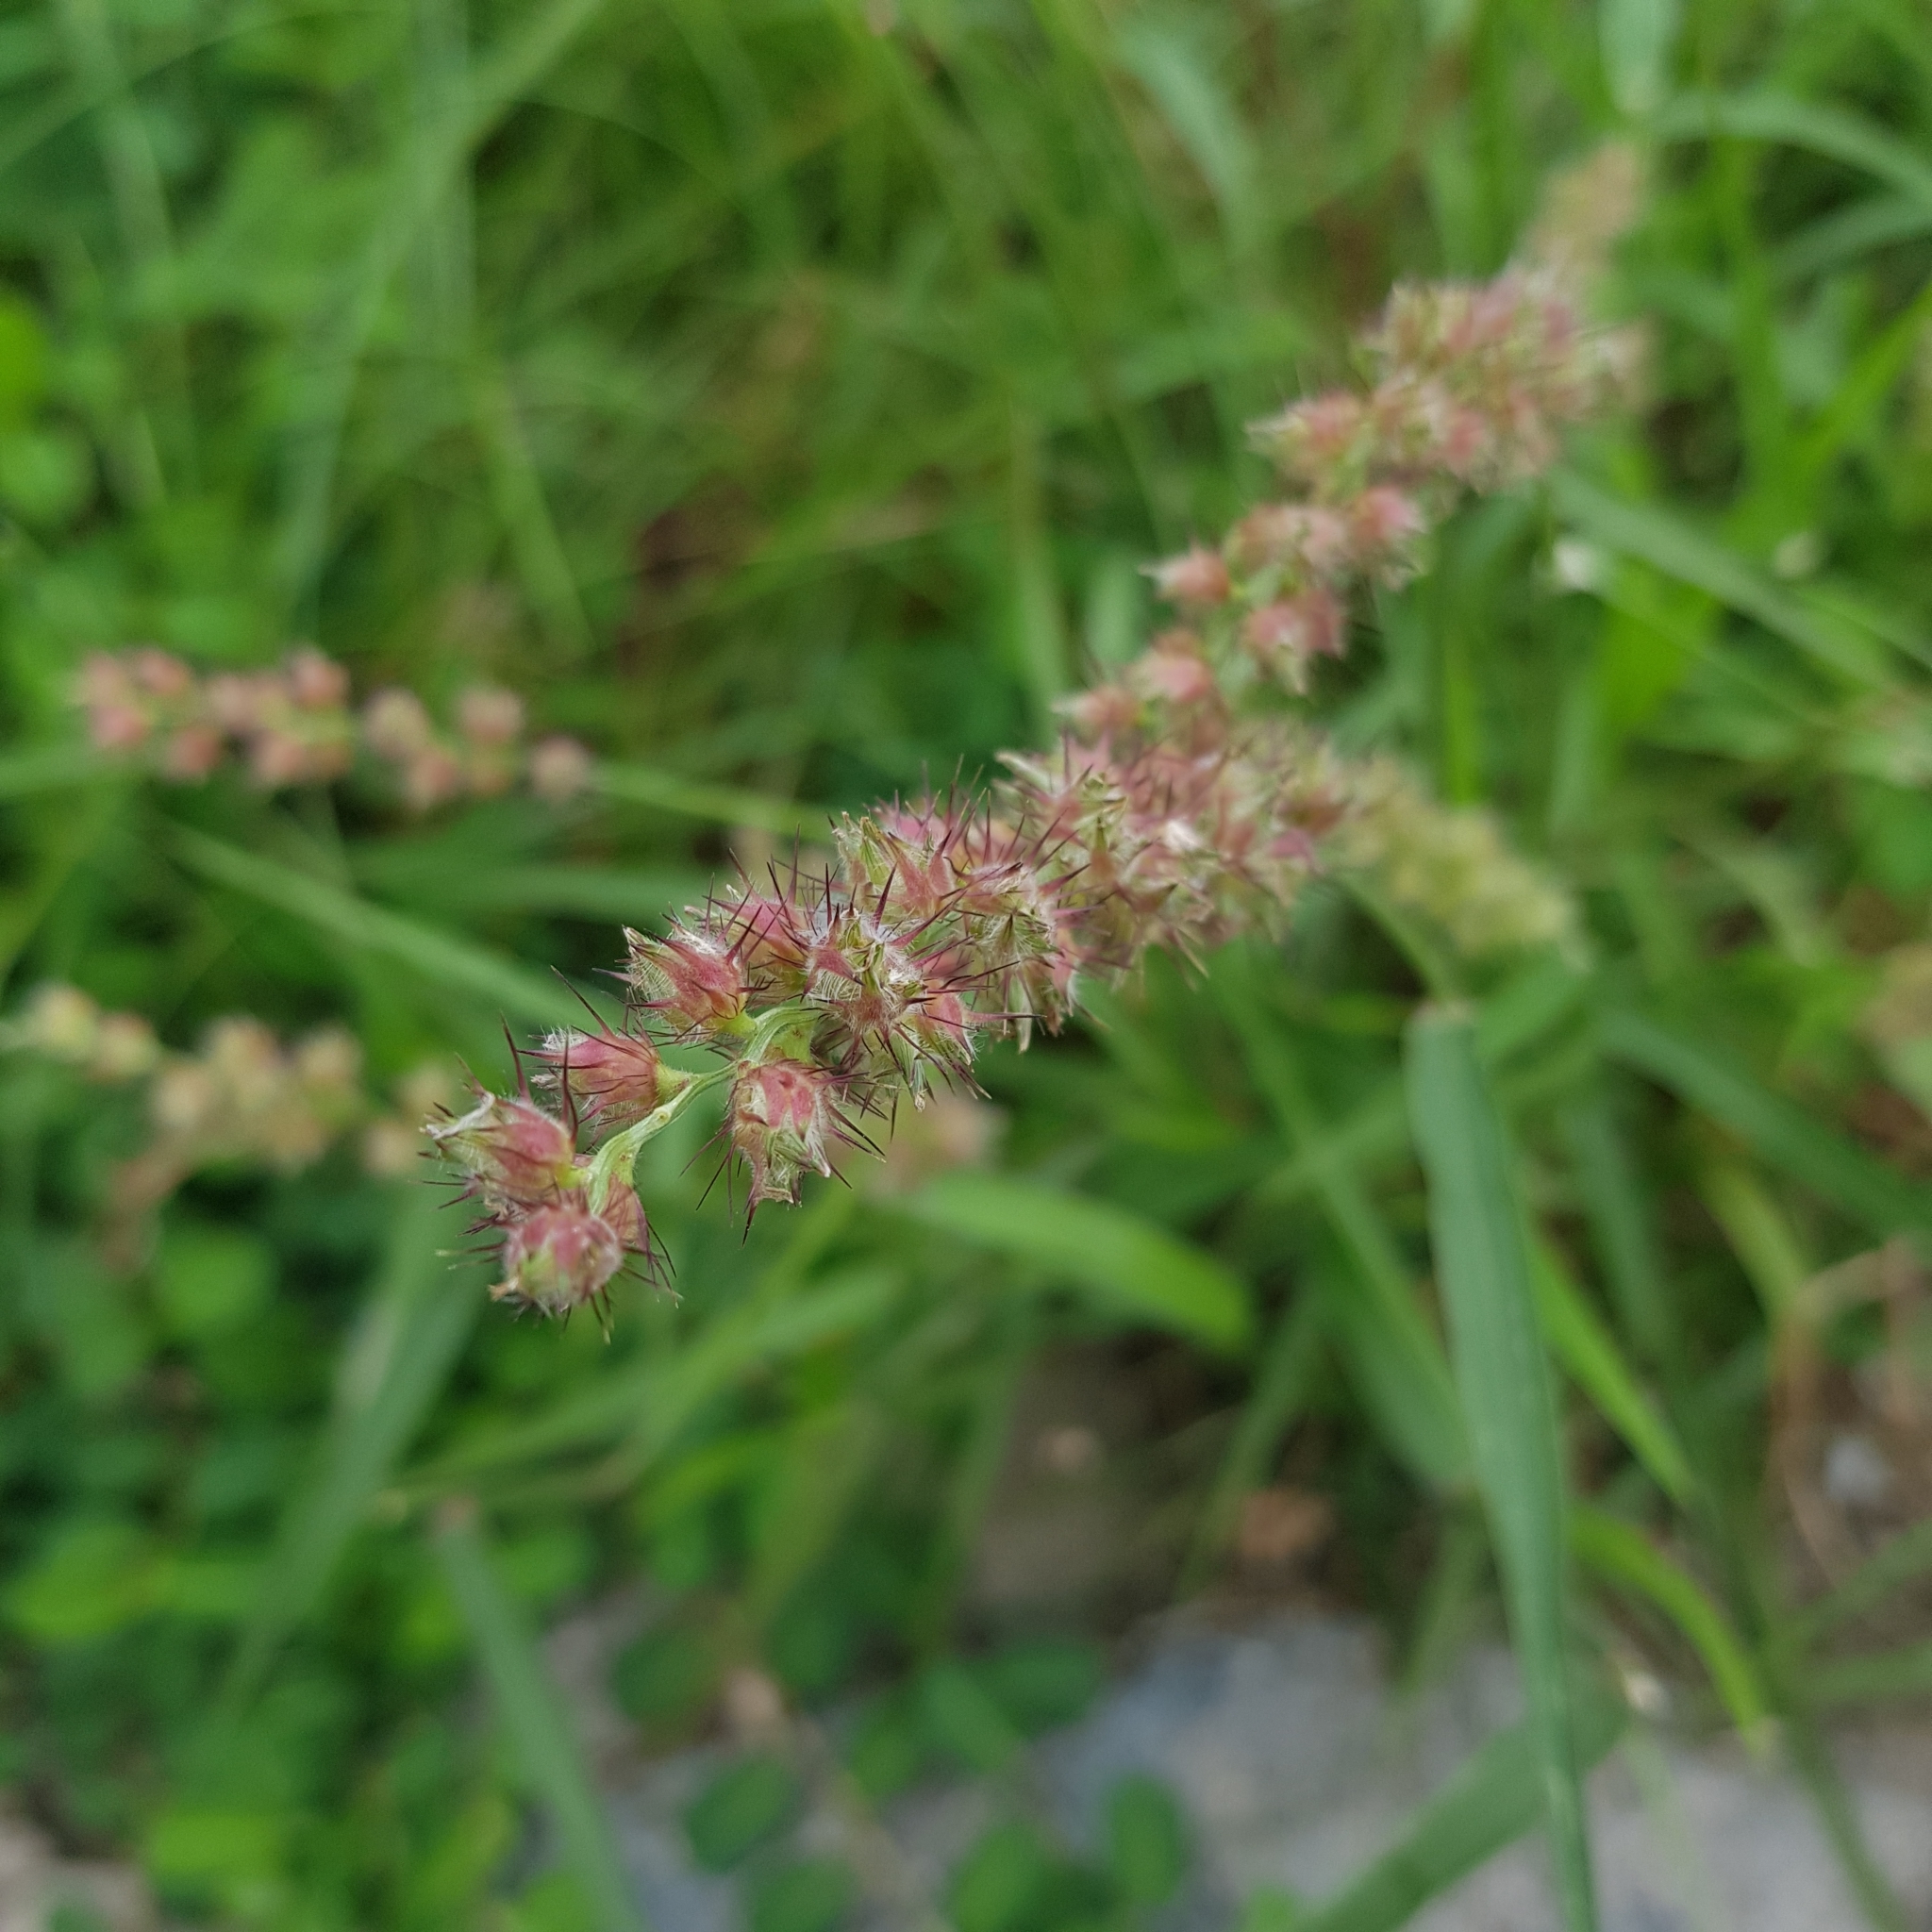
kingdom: Plantae
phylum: Tracheophyta
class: Liliopsida
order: Poales
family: Poaceae
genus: Cenchrus
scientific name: Cenchrus echinatus
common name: Southern sandbur
